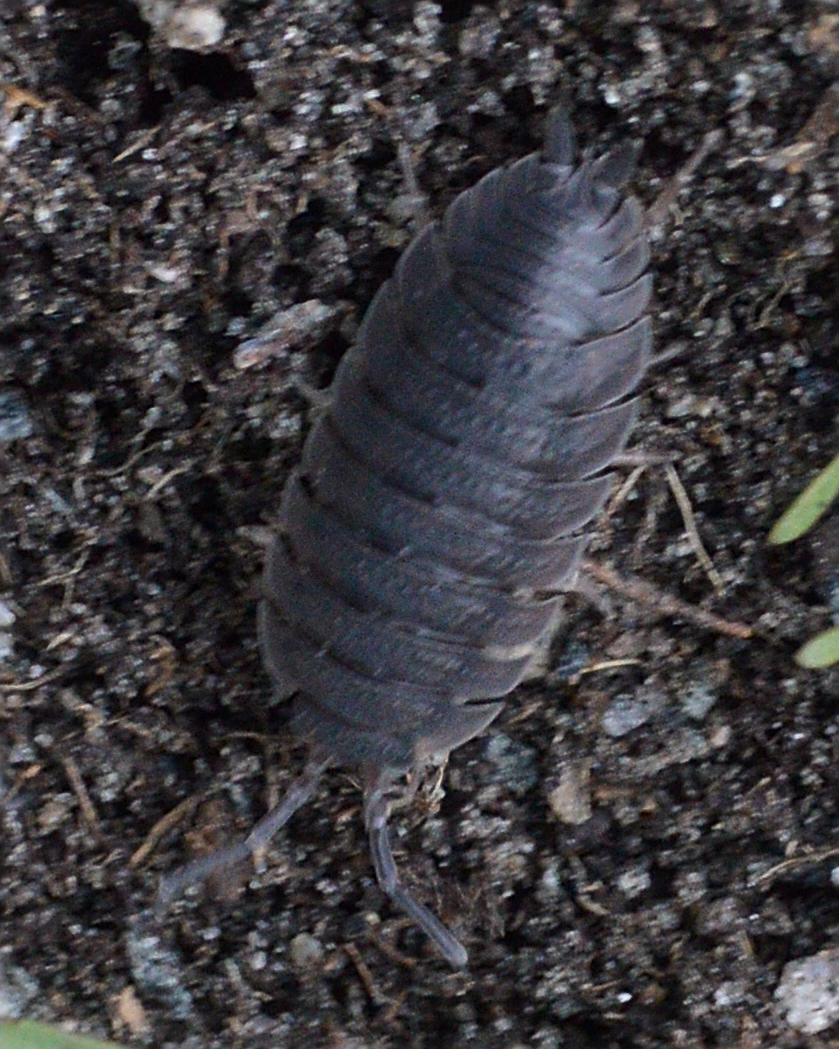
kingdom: Animalia
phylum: Arthropoda
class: Malacostraca
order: Isopoda
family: Porcellionidae
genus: Porcellio
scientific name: Porcellio scaber
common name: Common rough woodlouse
